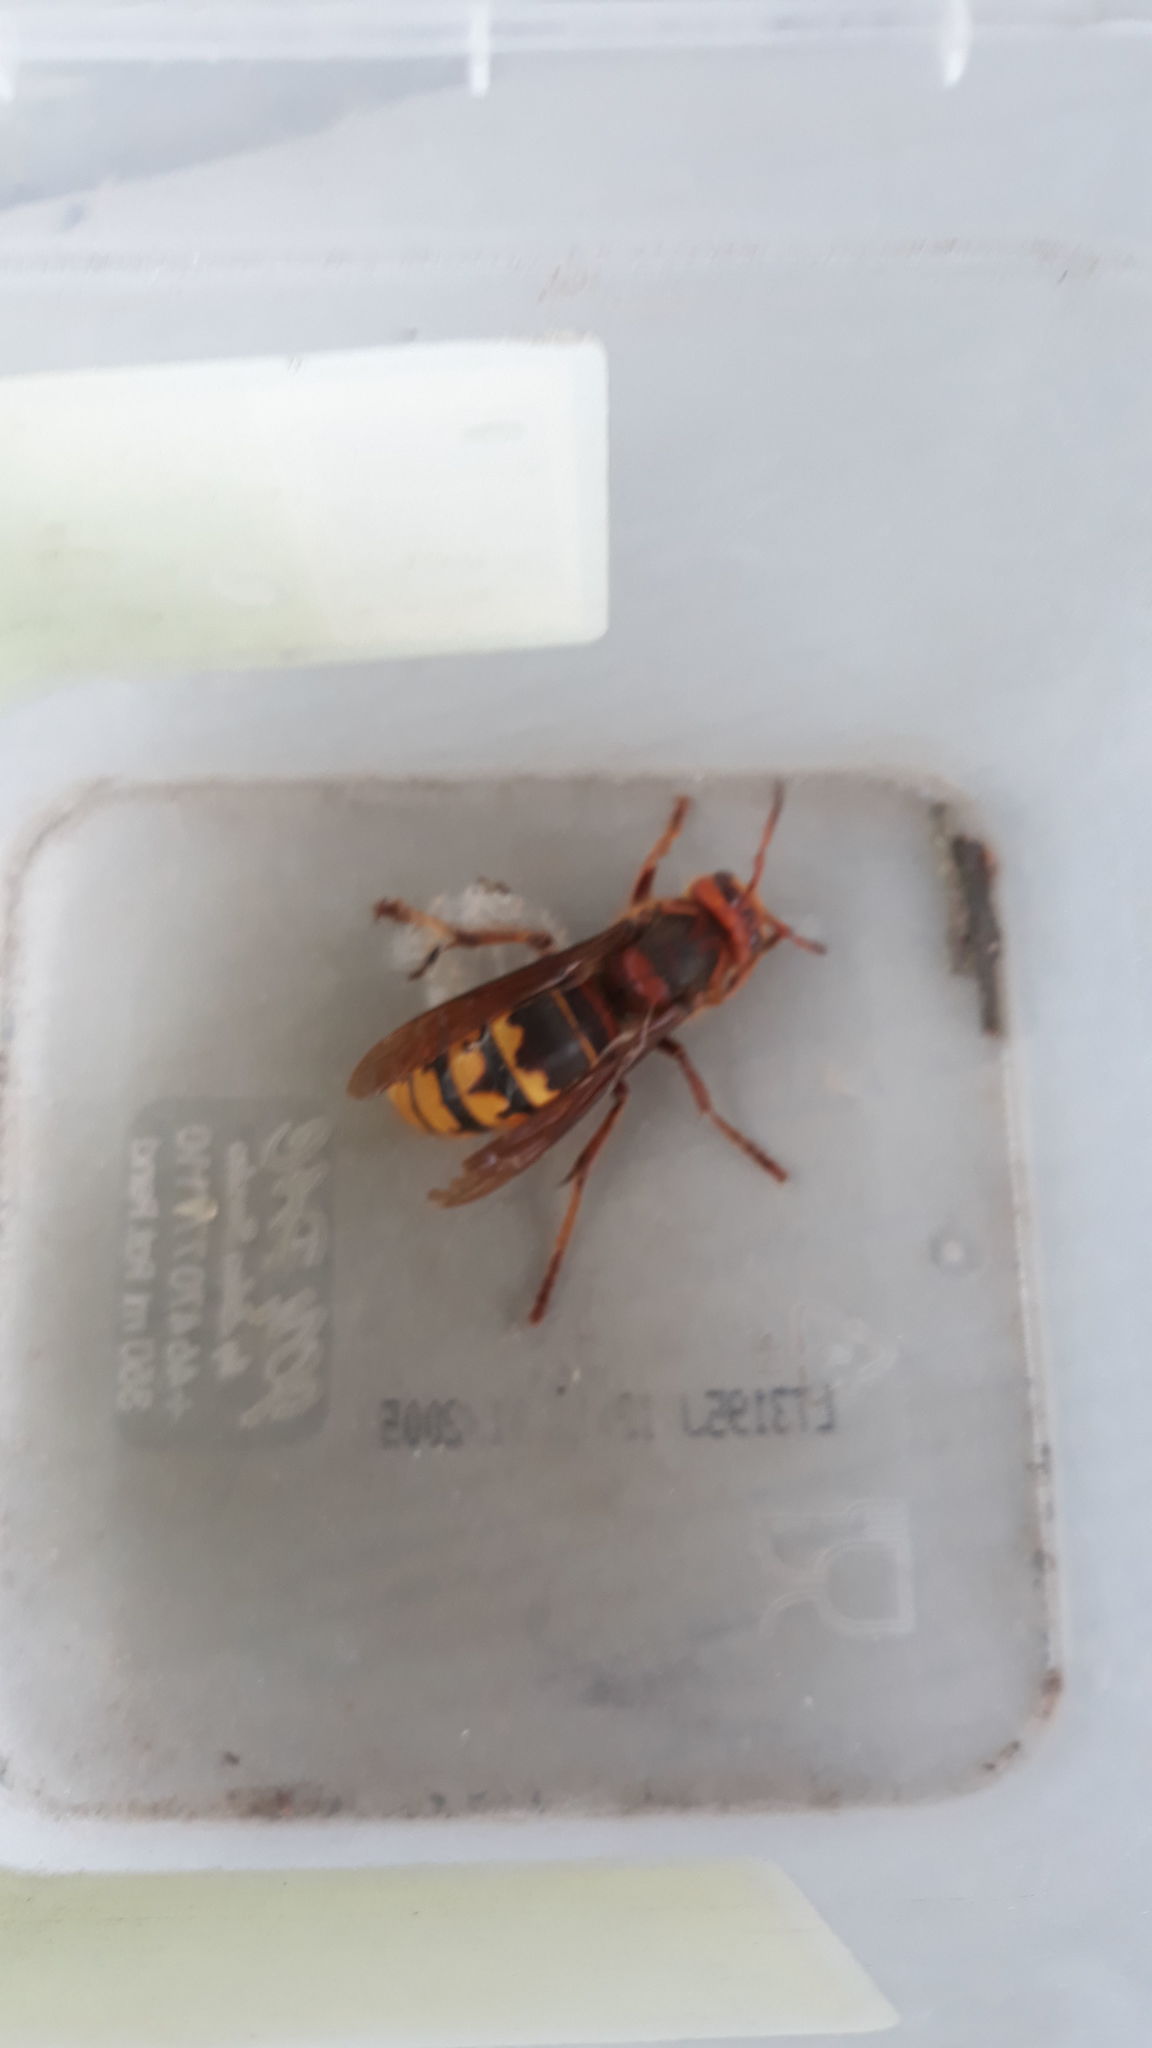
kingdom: Animalia
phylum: Arthropoda
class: Insecta
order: Hymenoptera
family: Vespidae
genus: Vespa
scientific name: Vespa crabro
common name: Hornet
